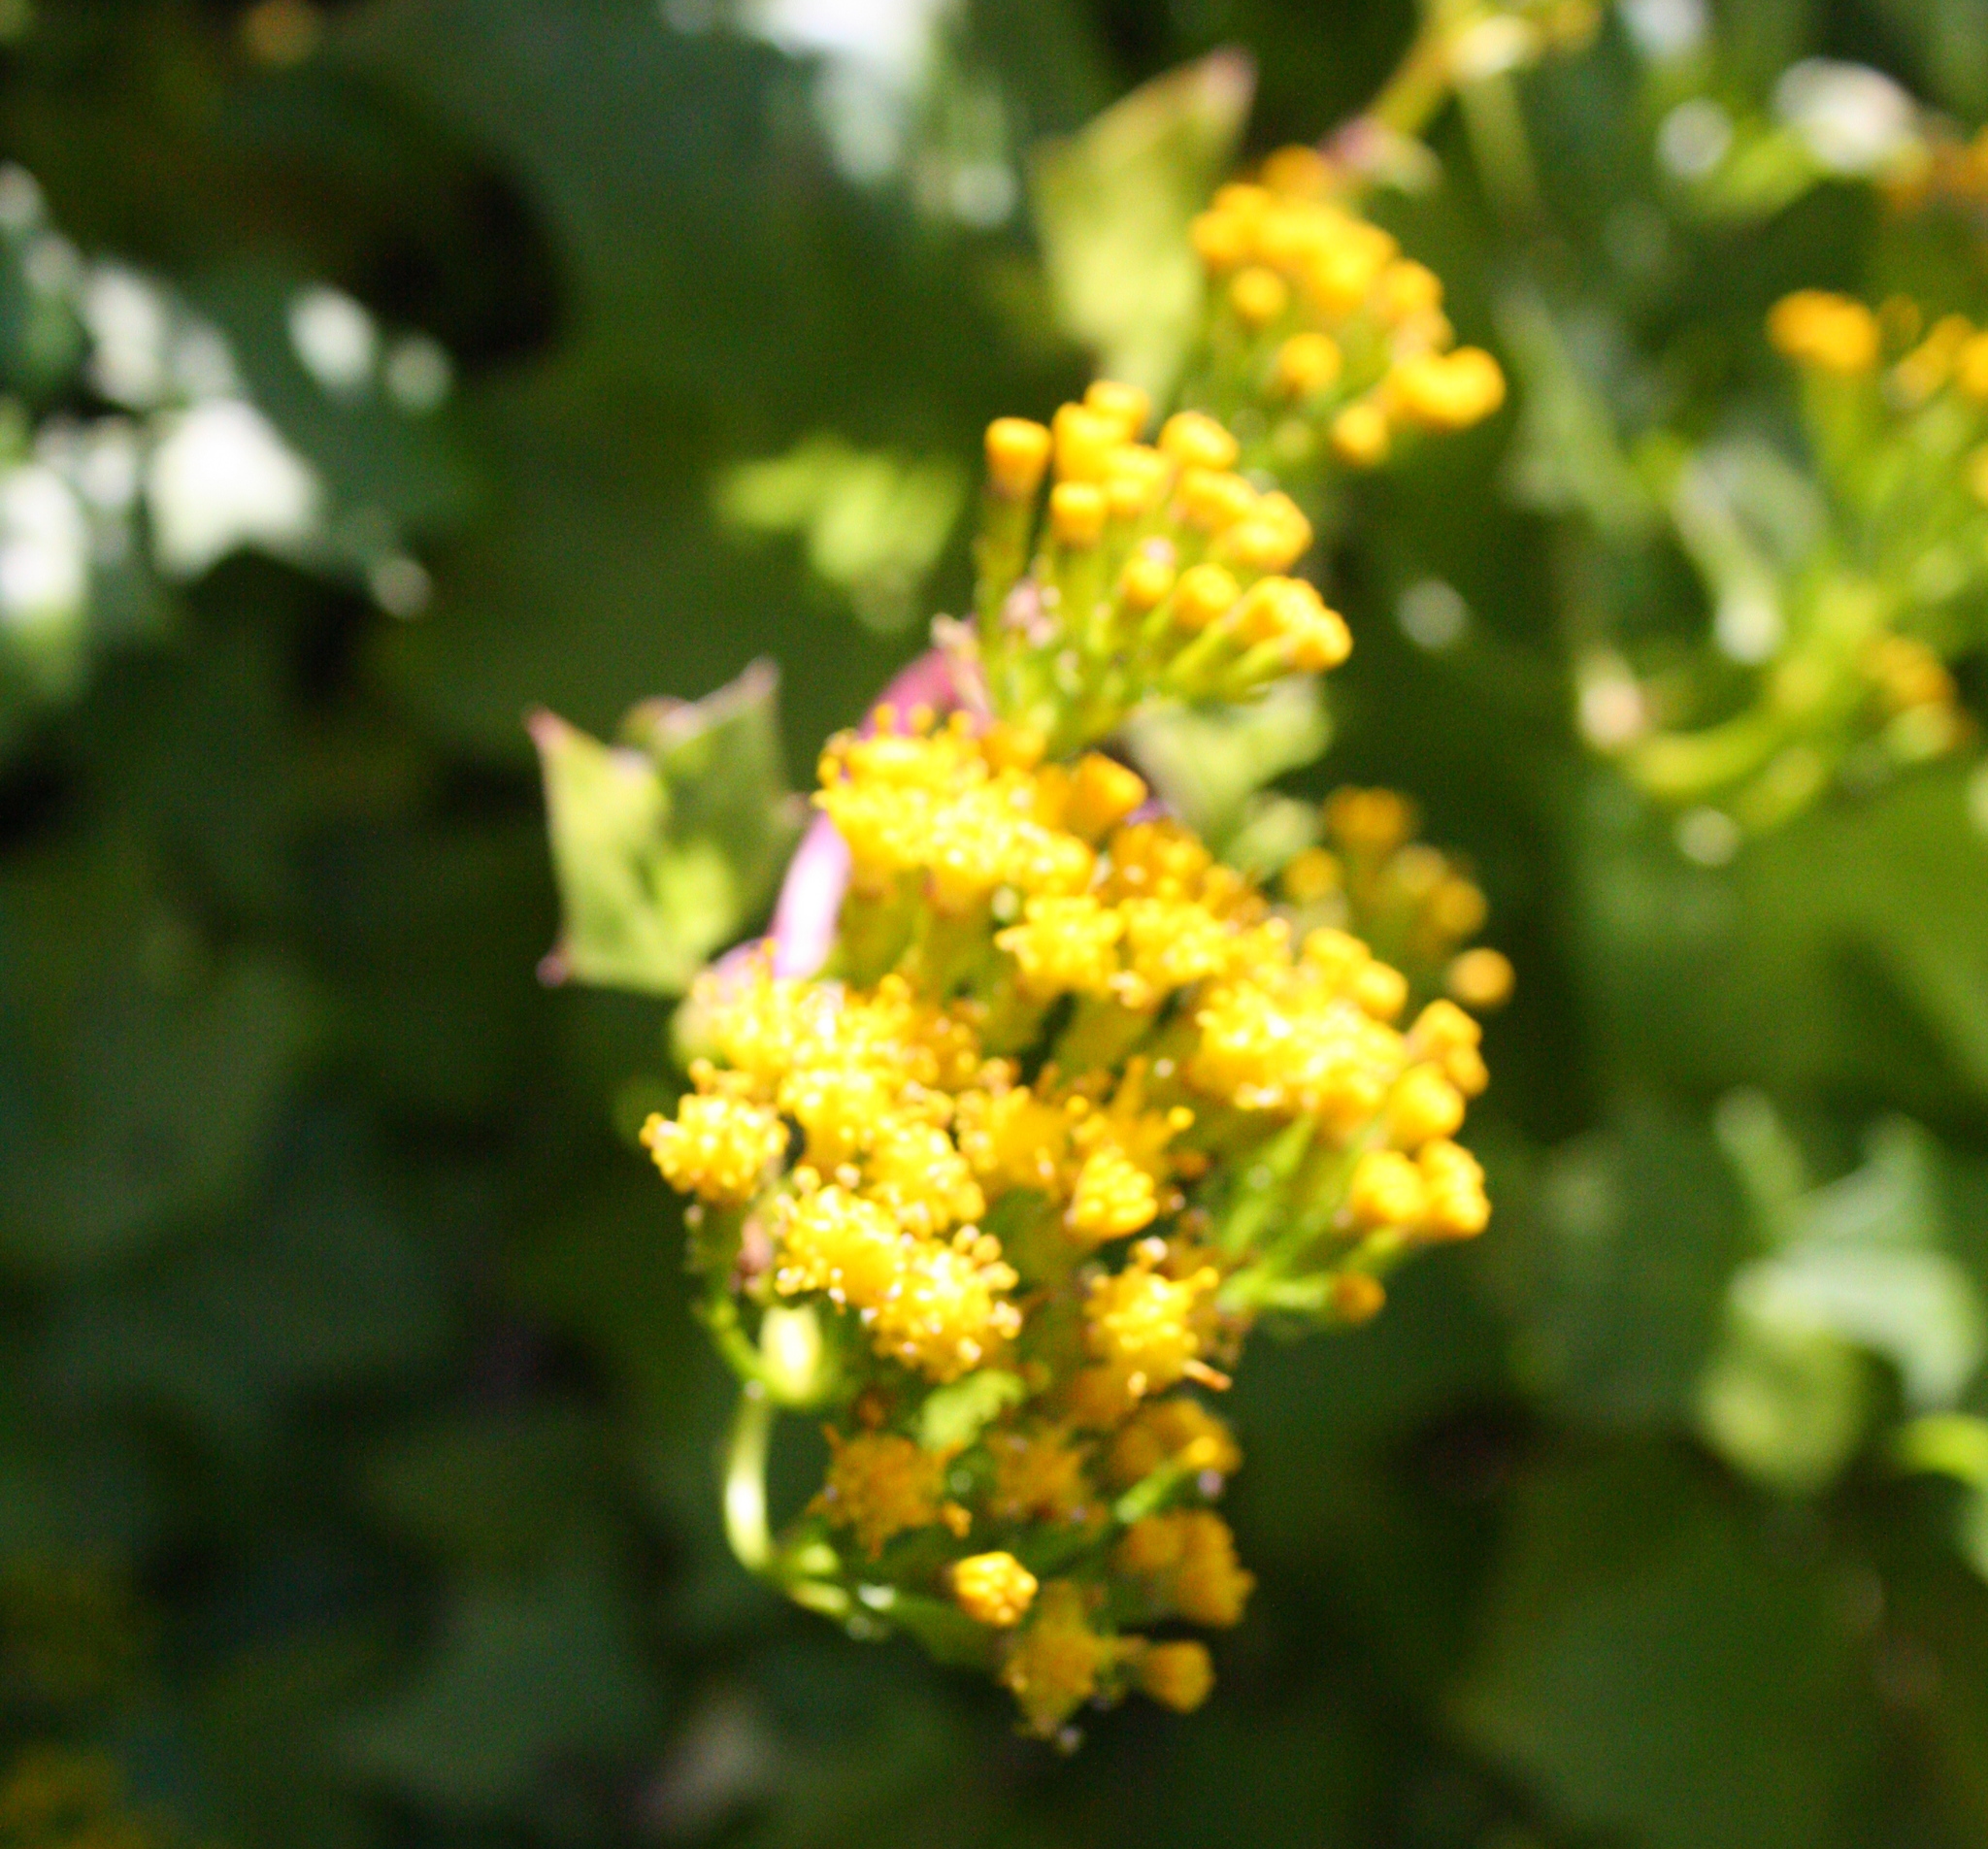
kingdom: Plantae
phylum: Tracheophyta
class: Magnoliopsida
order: Asterales
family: Asteraceae
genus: Delairea
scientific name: Delairea odorata
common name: Cape-ivy
